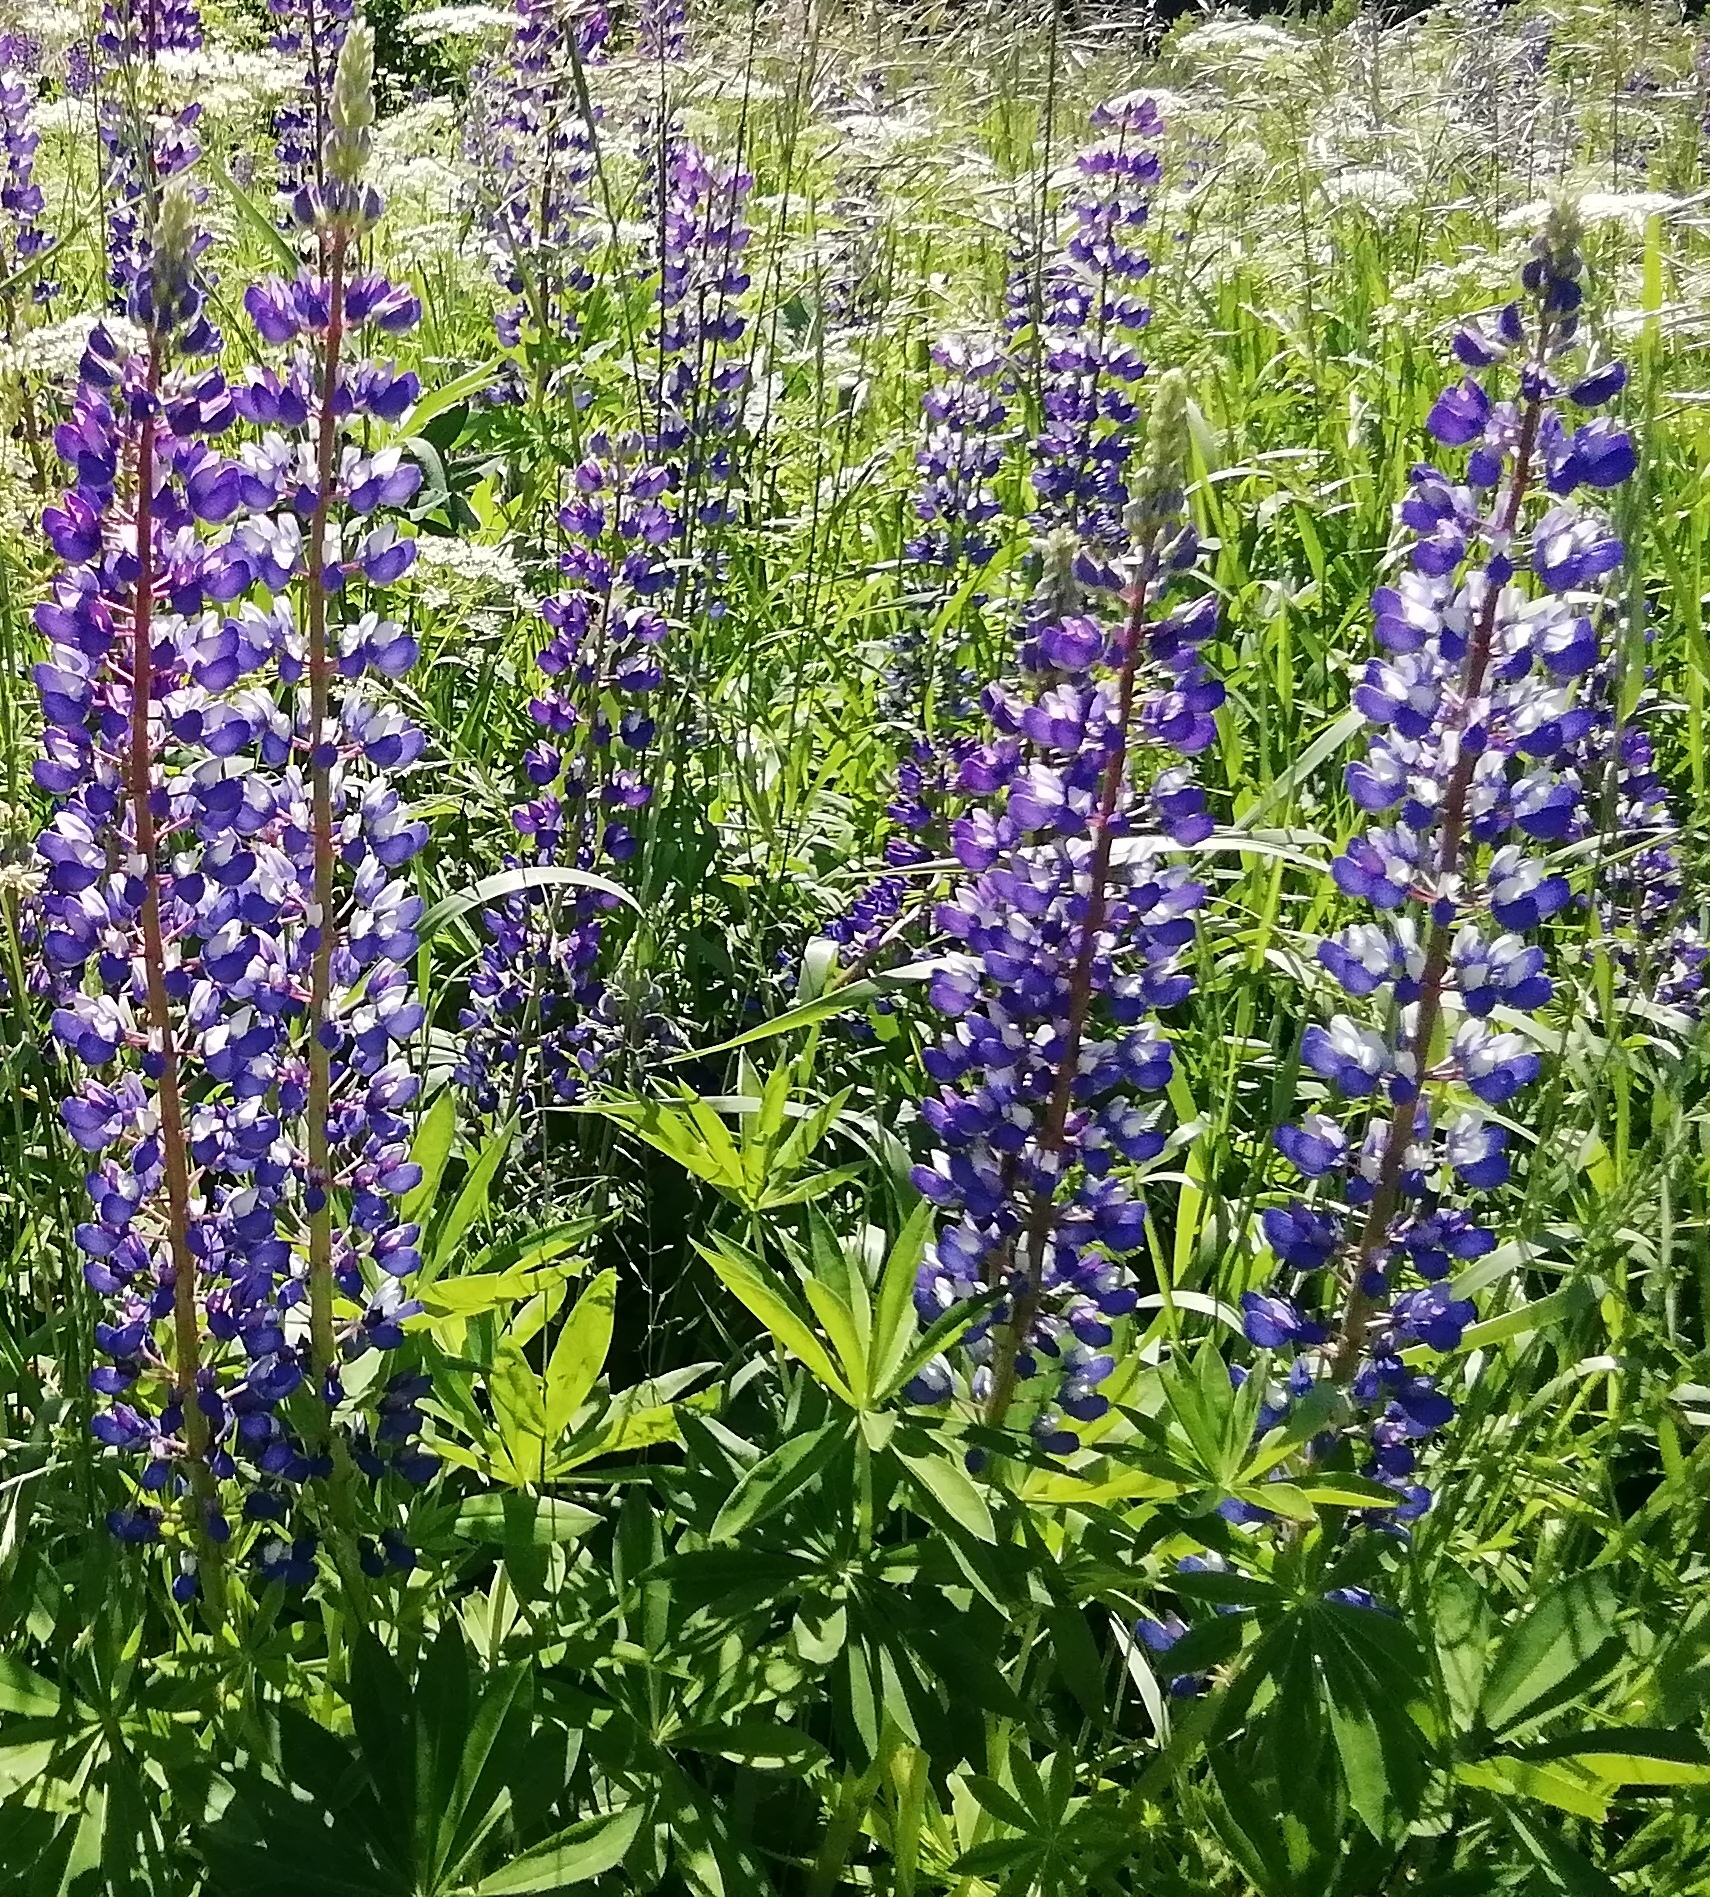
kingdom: Plantae
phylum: Tracheophyta
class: Magnoliopsida
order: Fabales
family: Fabaceae
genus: Lupinus
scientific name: Lupinus polyphyllus
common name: Garden lupin
